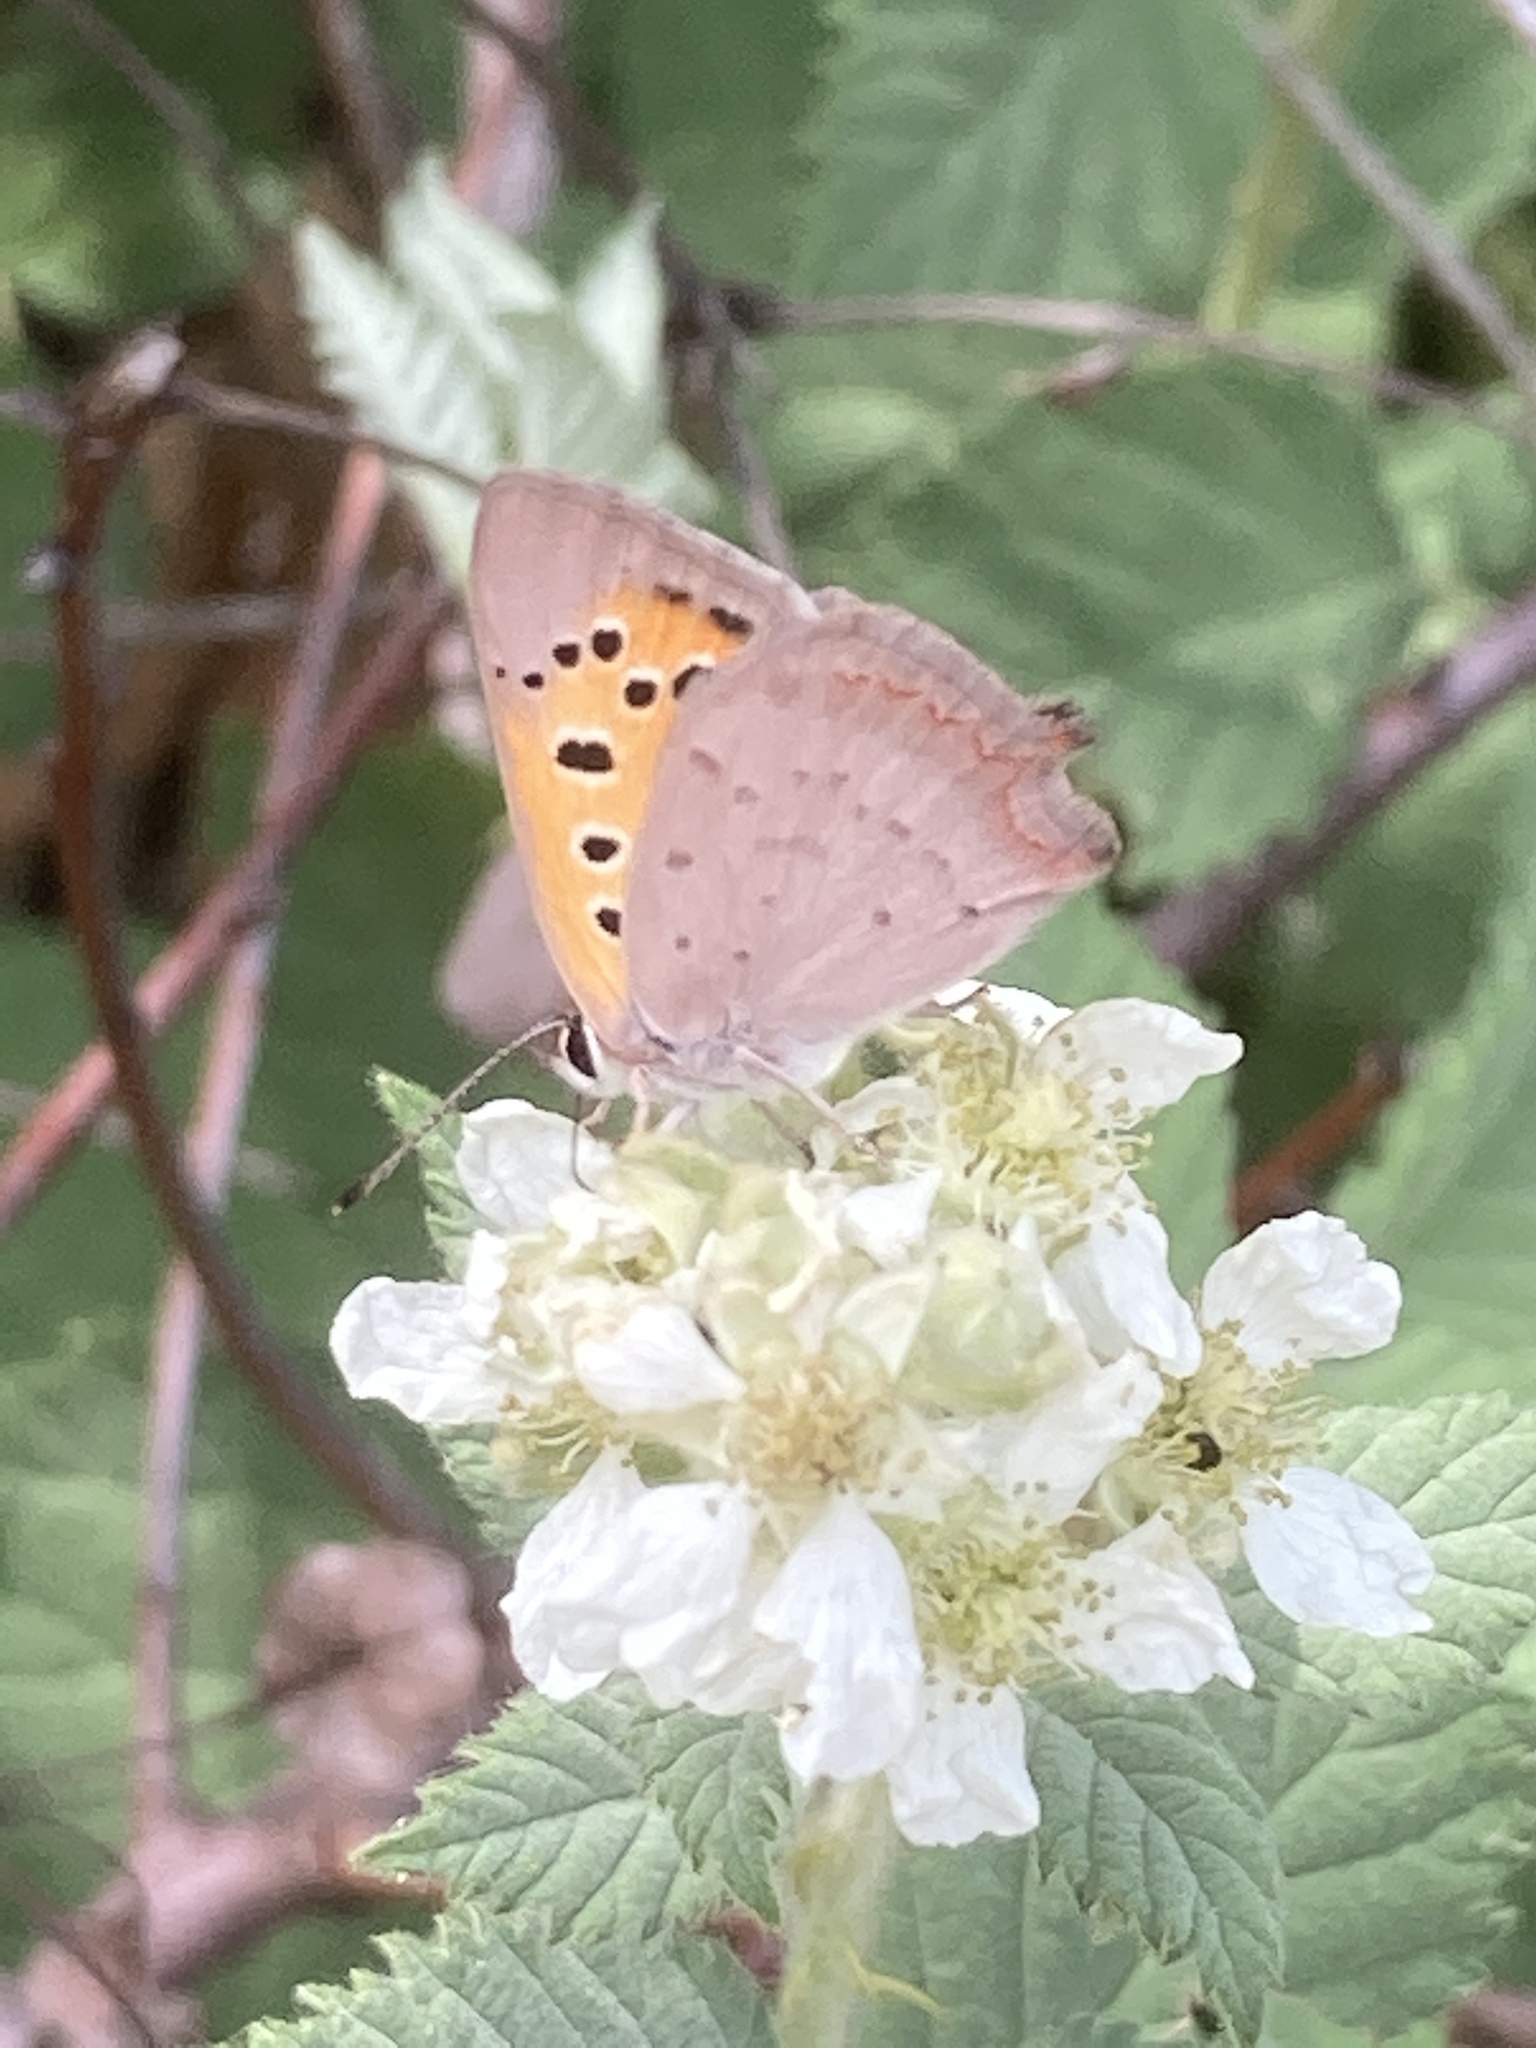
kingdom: Animalia
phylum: Arthropoda
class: Insecta
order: Lepidoptera
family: Lycaenidae
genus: Lycaena
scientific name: Lycaena phlaeas
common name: Small copper
